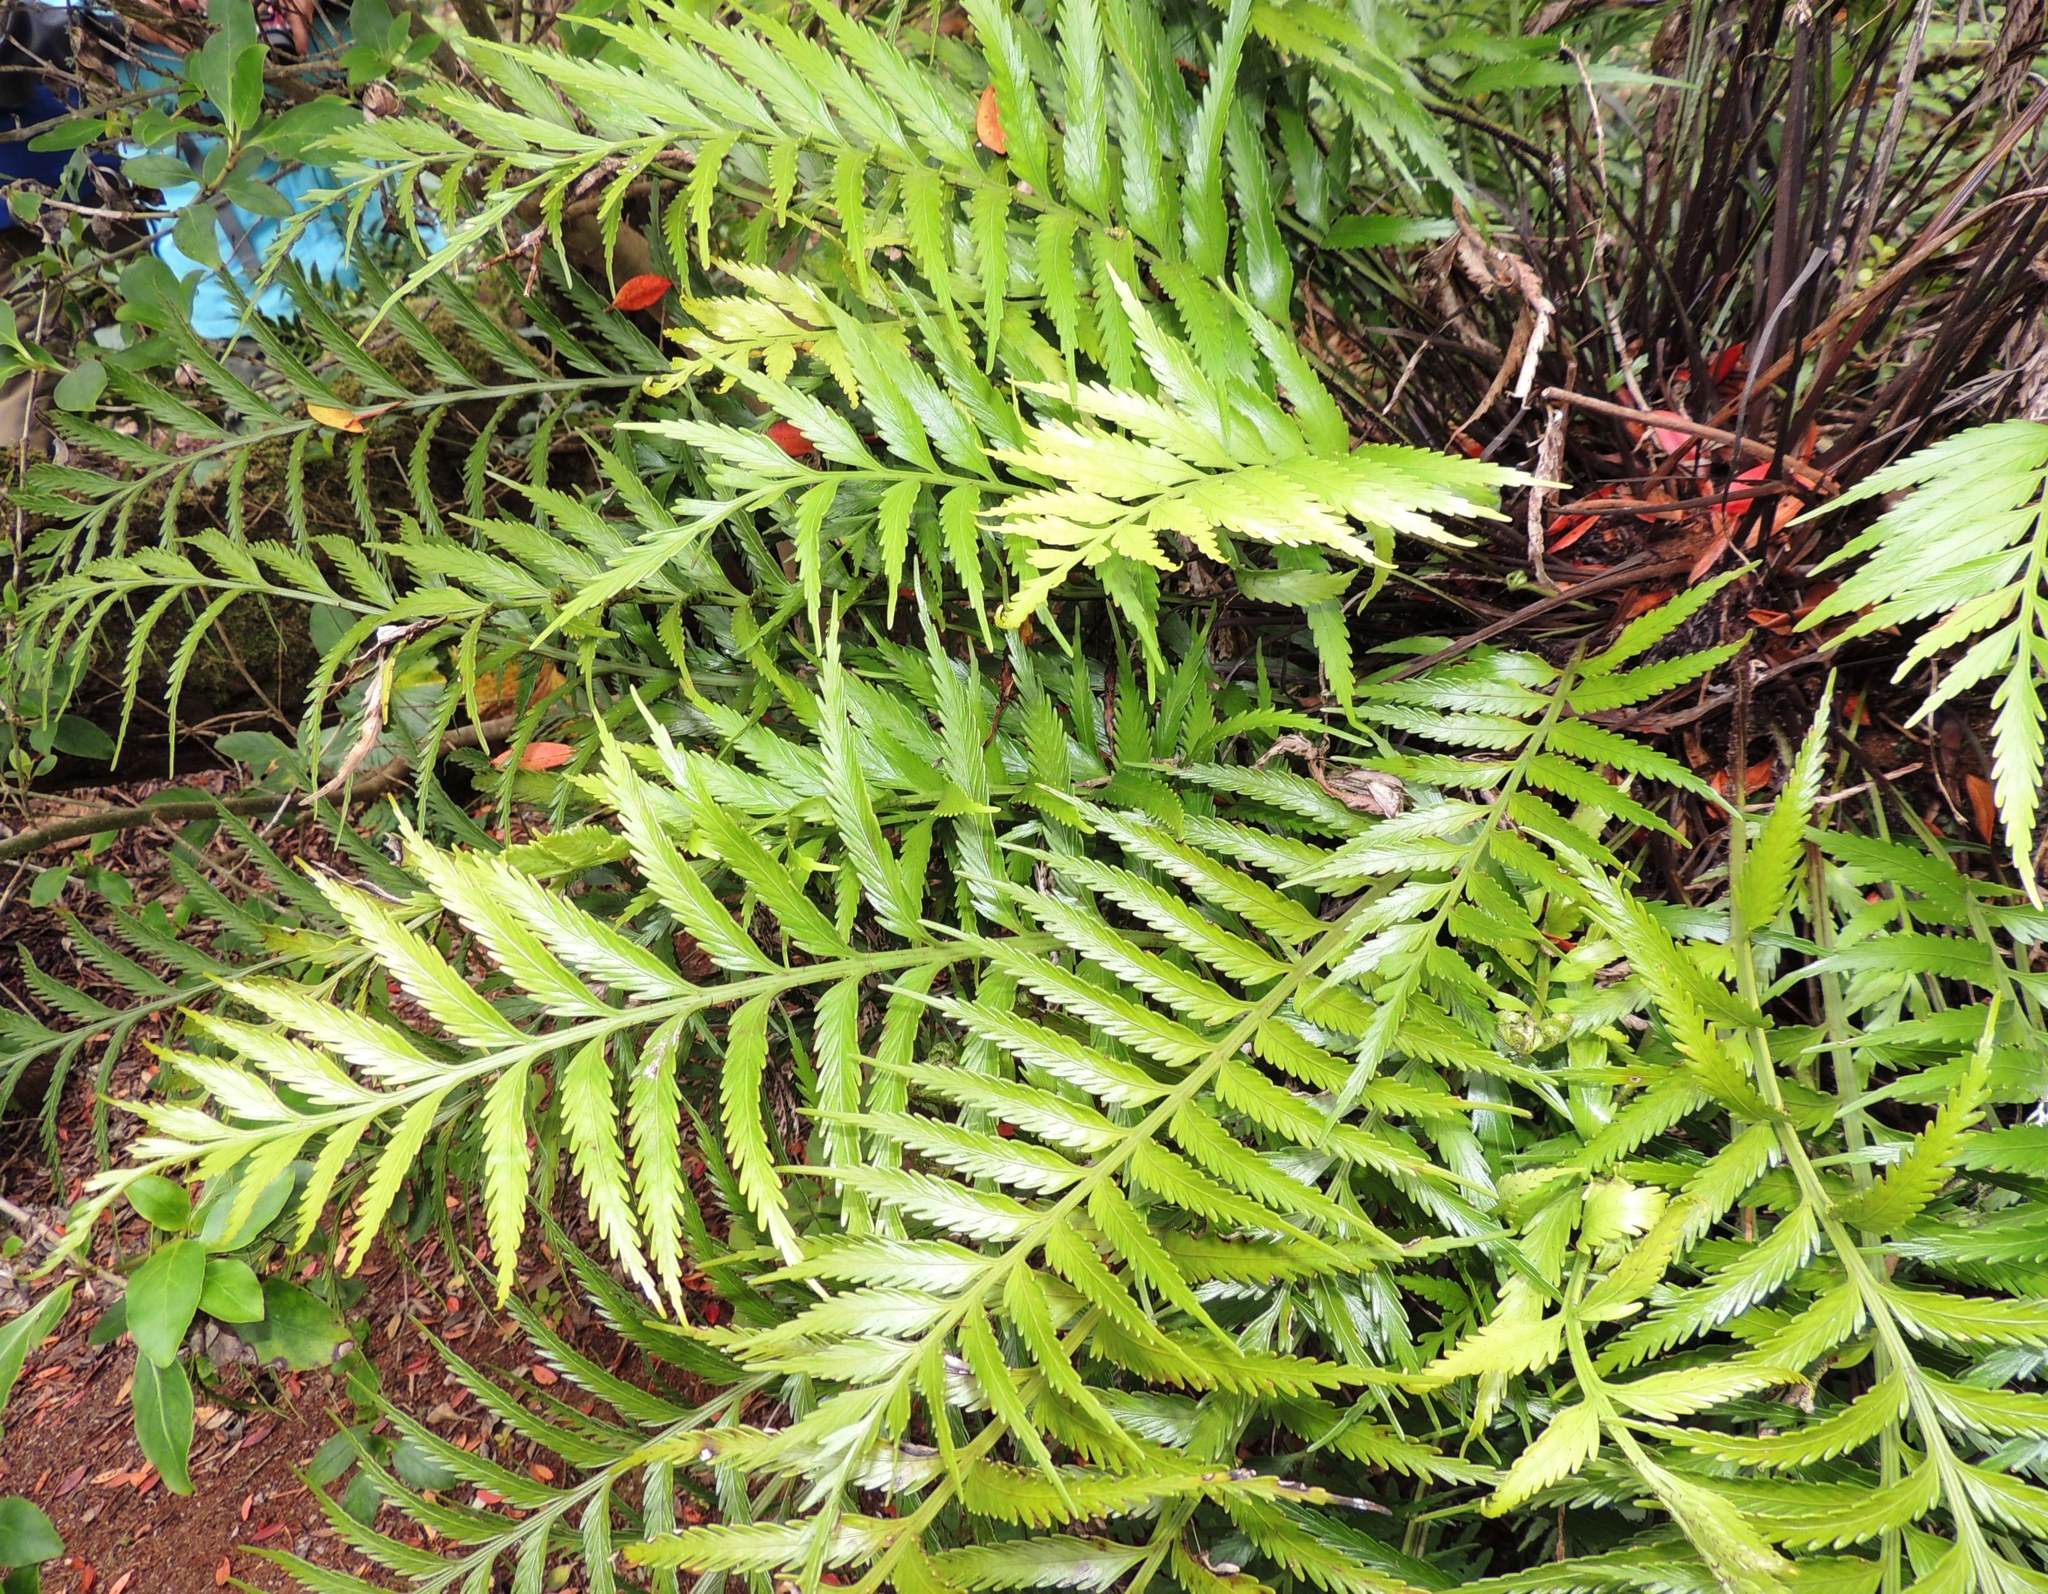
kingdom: Plantae
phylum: Tracheophyta
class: Polypodiopsida
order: Polypodiales
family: Aspleniaceae
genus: Asplenium
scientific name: Asplenium scleroprium
